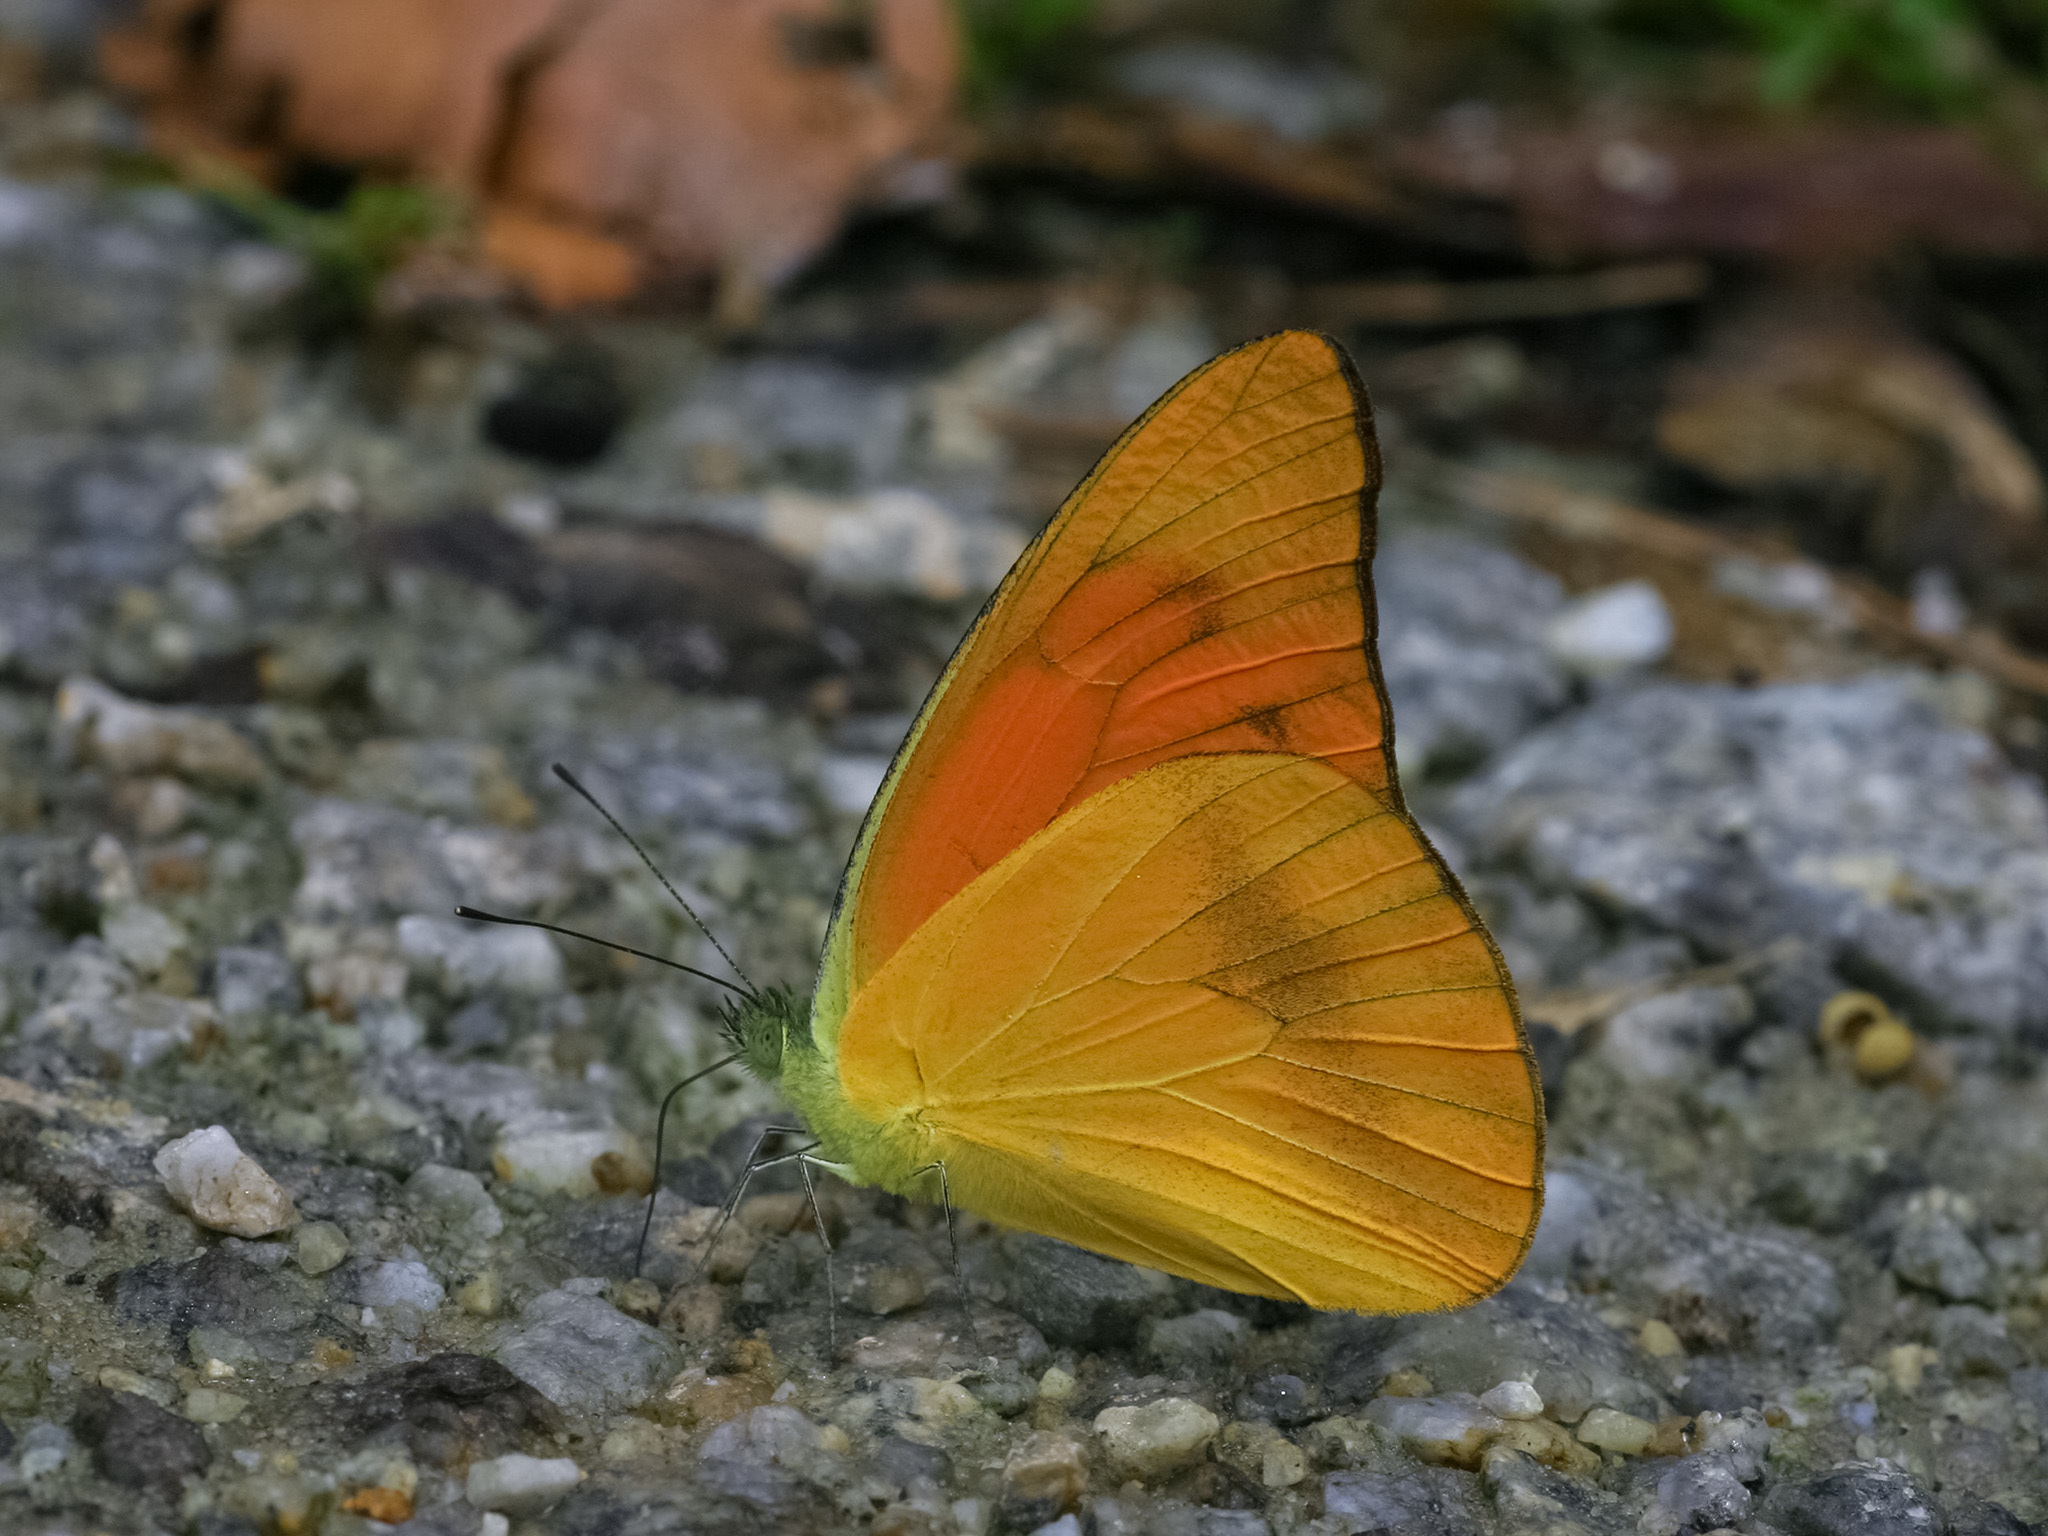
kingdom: Animalia
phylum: Arthropoda
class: Insecta
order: Lepidoptera
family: Pieridae
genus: Appias
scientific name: Appias nero
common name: Orange albatross
